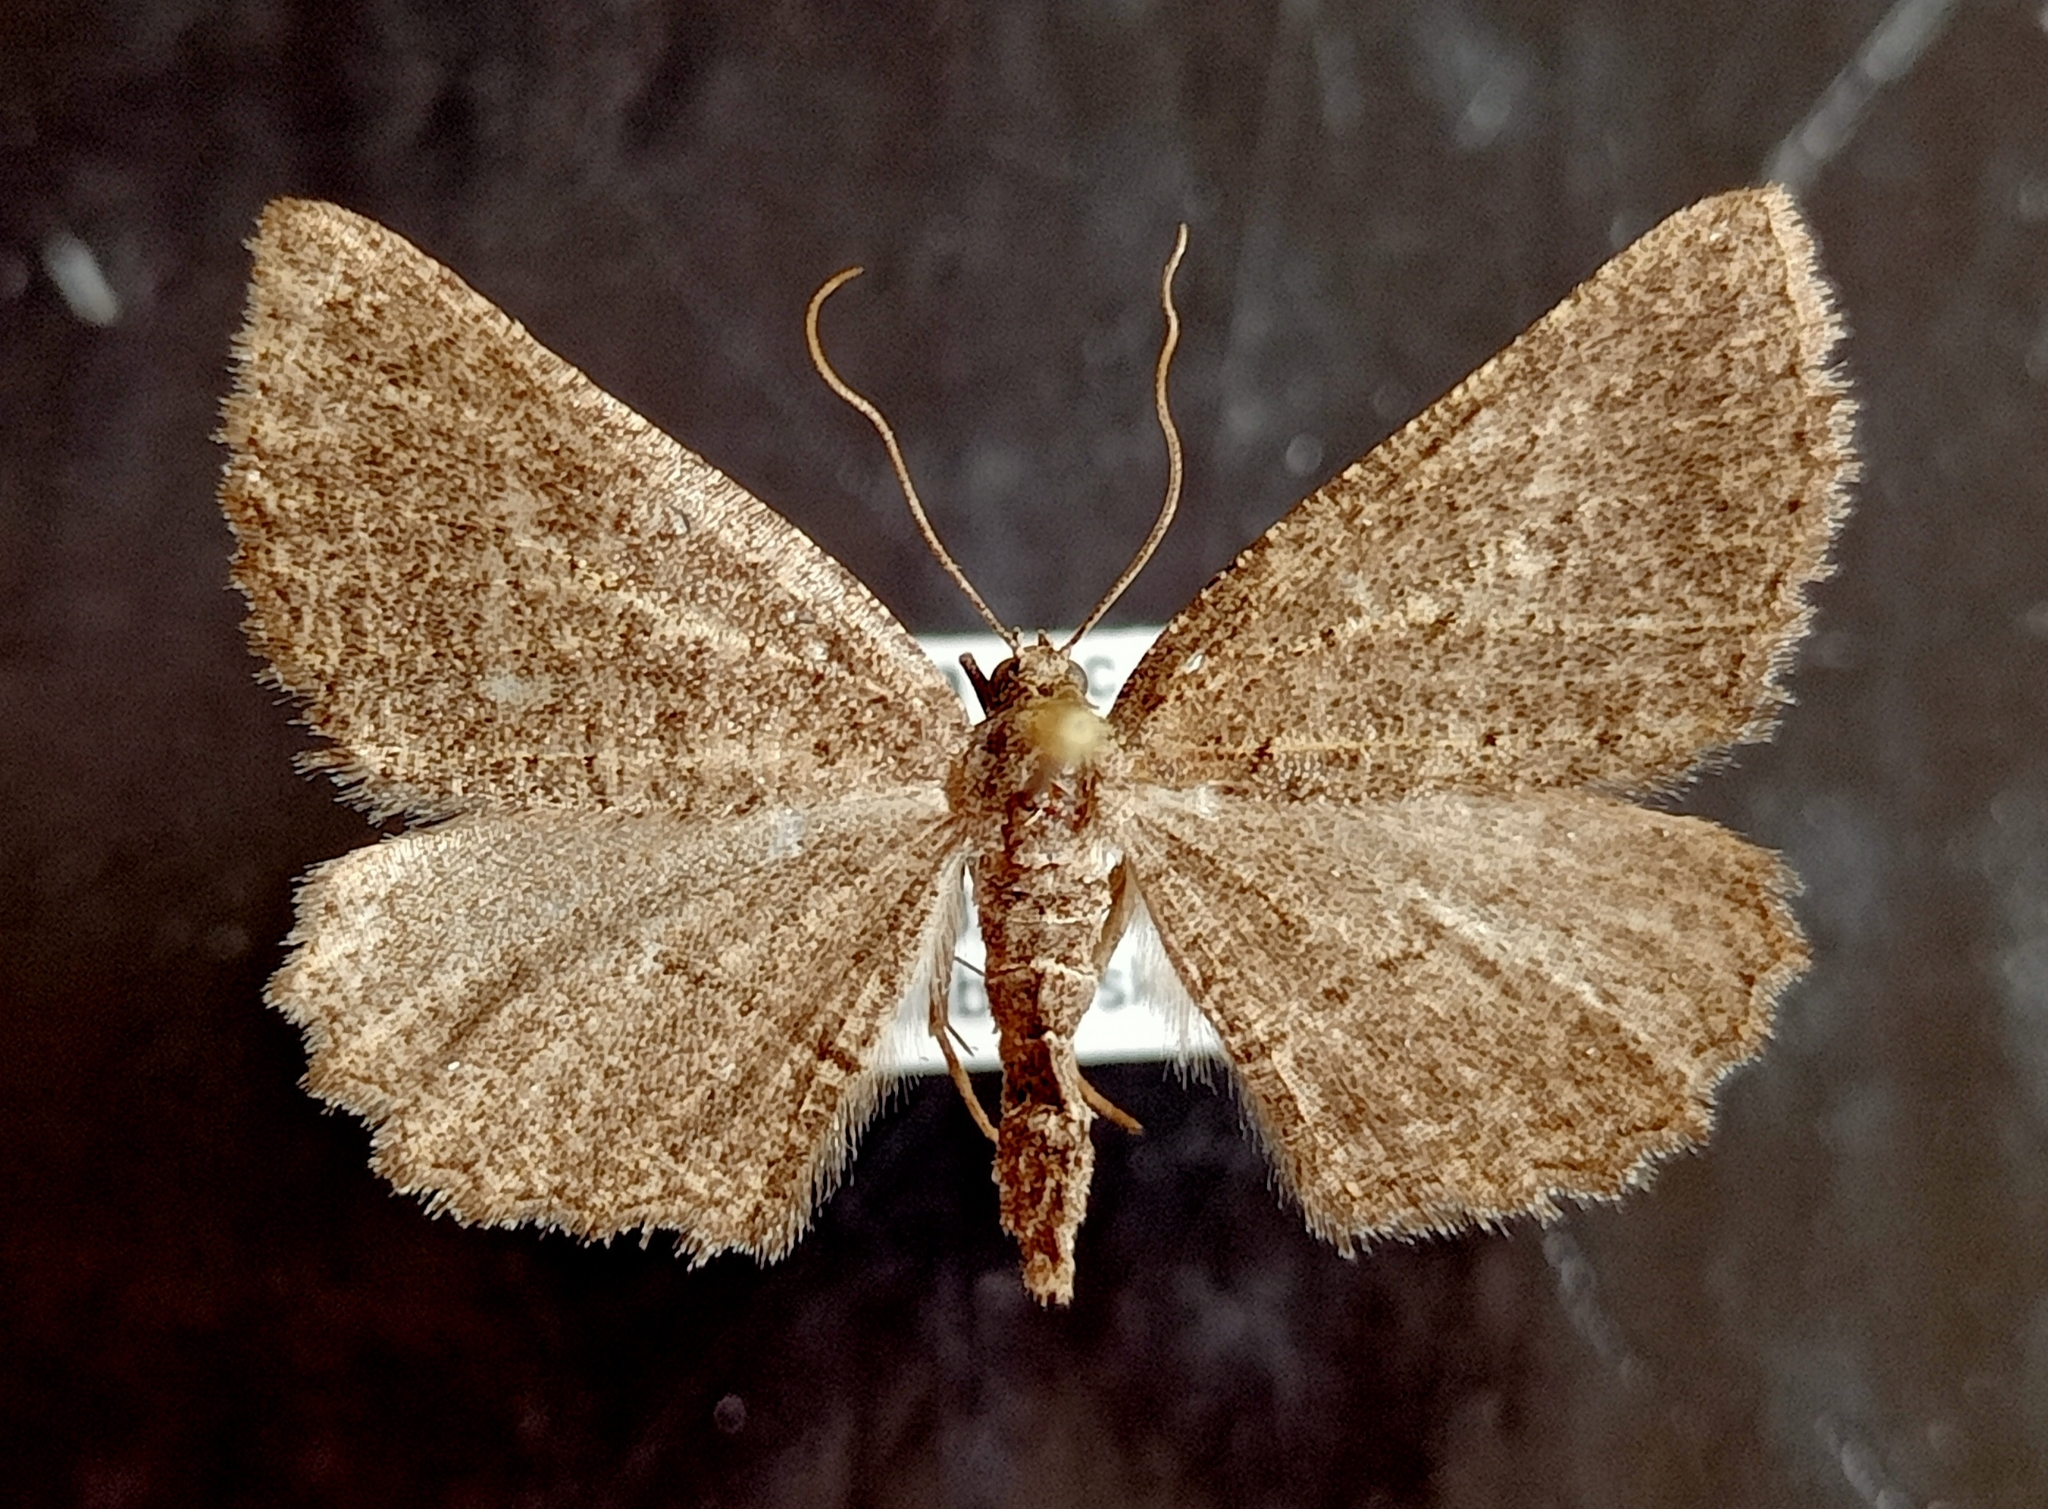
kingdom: Animalia
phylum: Arthropoda
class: Insecta
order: Lepidoptera
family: Geometridae
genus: Rhoptria
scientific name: Rhoptria asperaria
